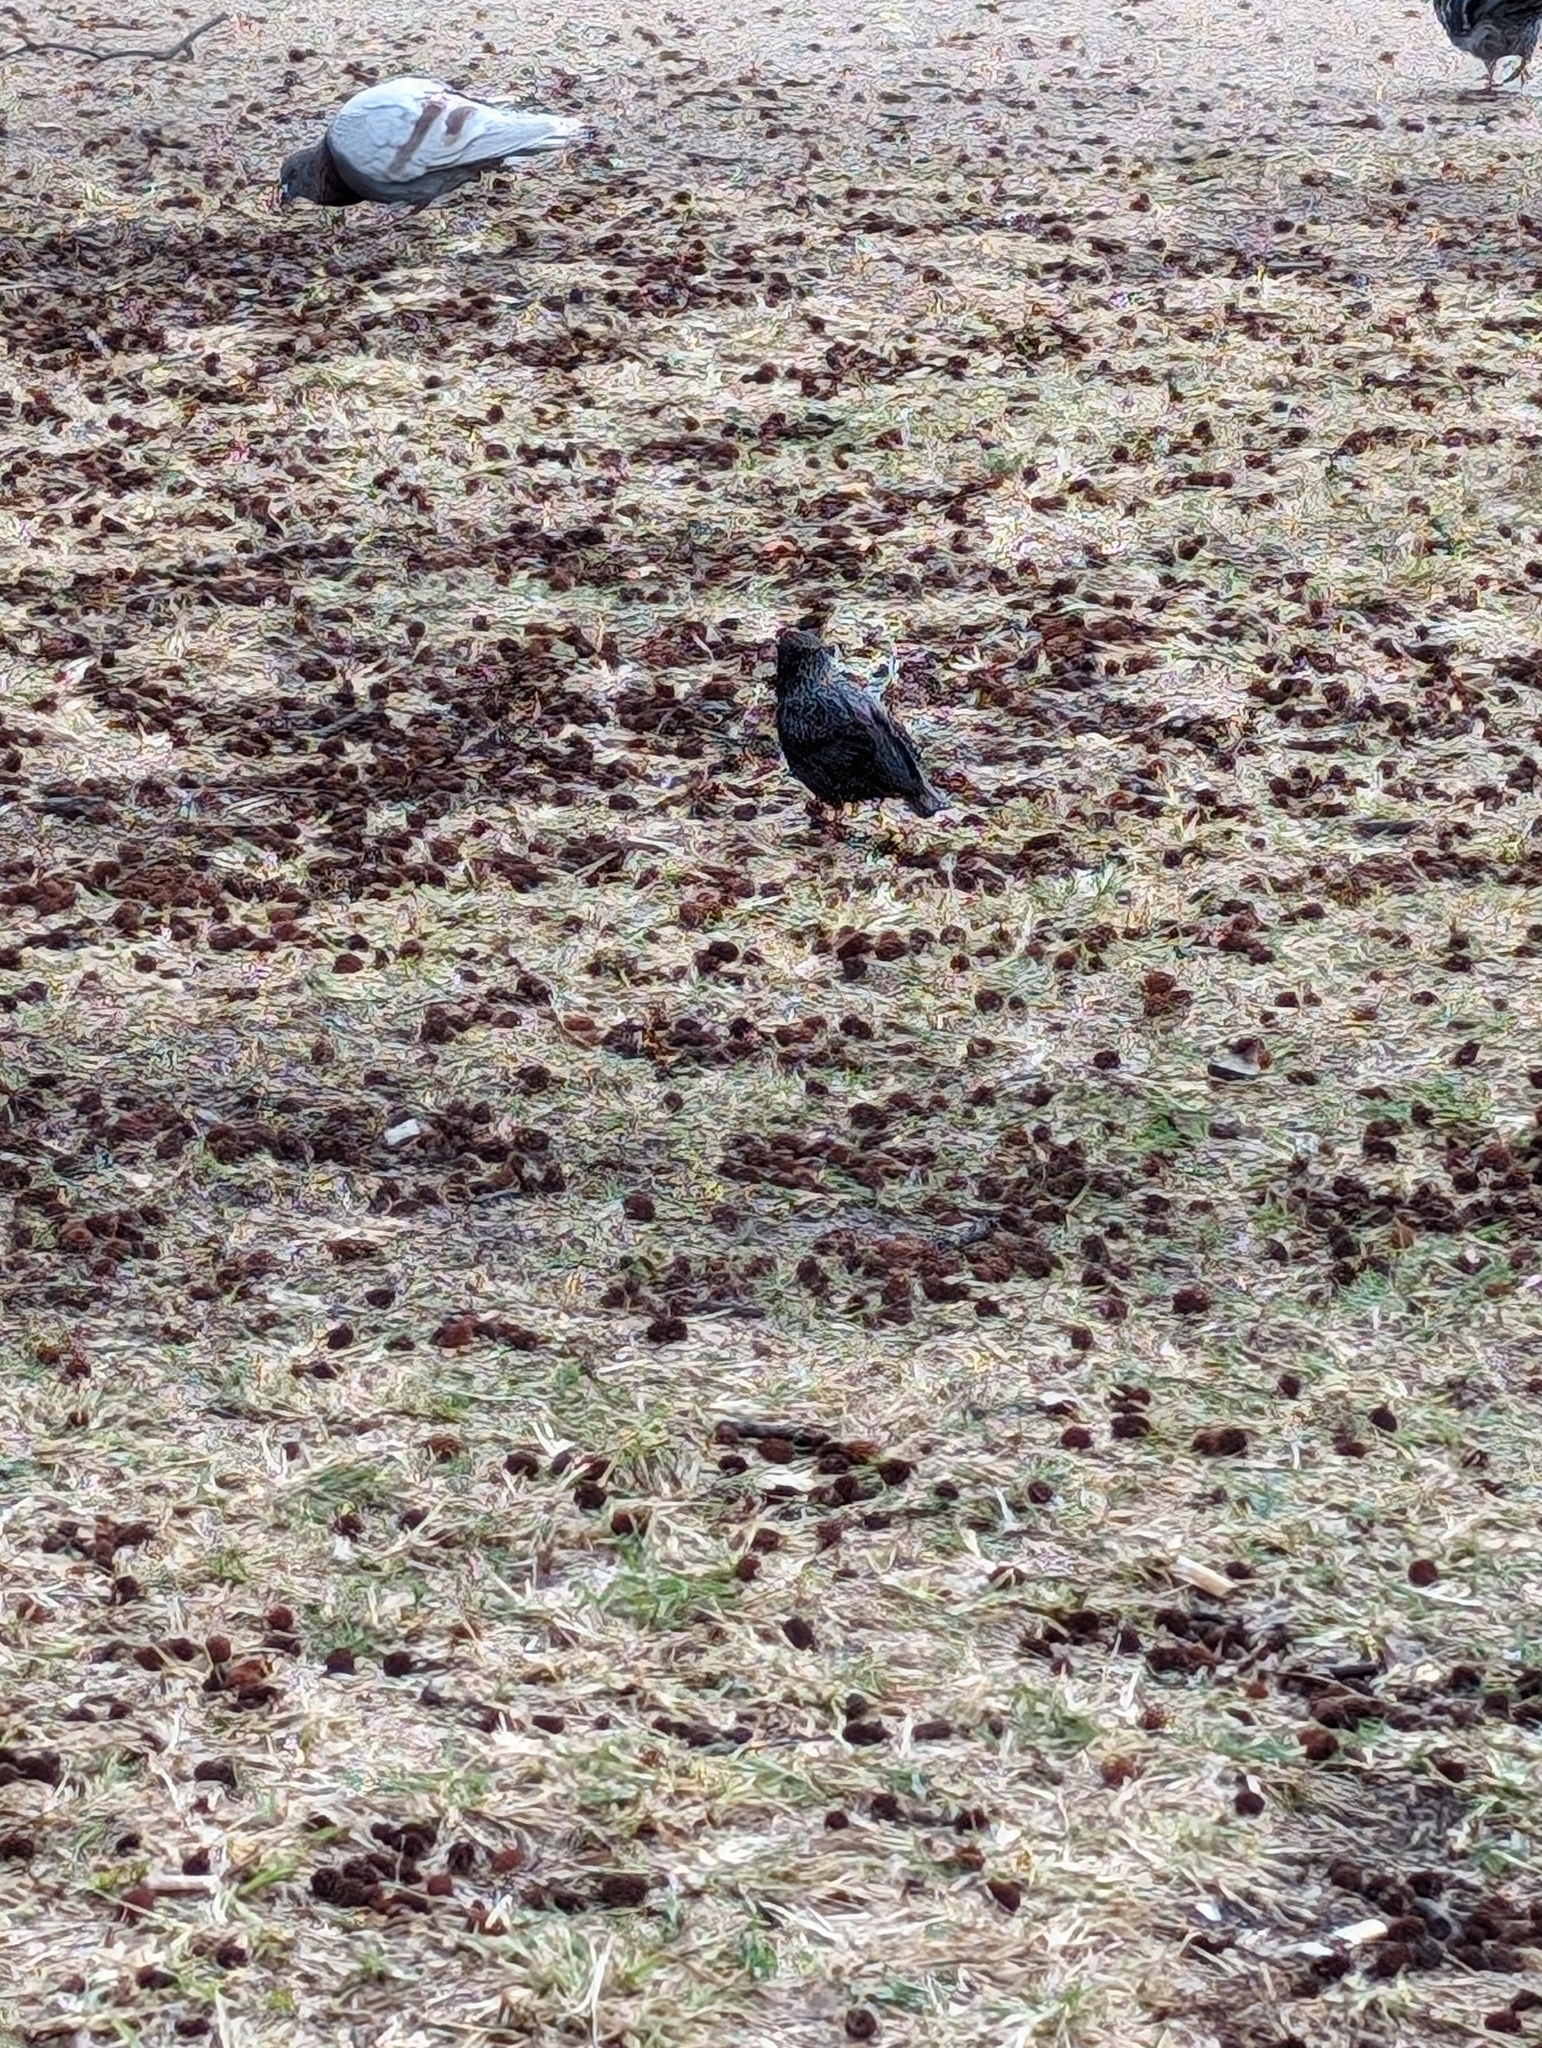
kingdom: Animalia
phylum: Chordata
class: Aves
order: Passeriformes
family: Sturnidae
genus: Sturnus
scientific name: Sturnus vulgaris
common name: Common starling
